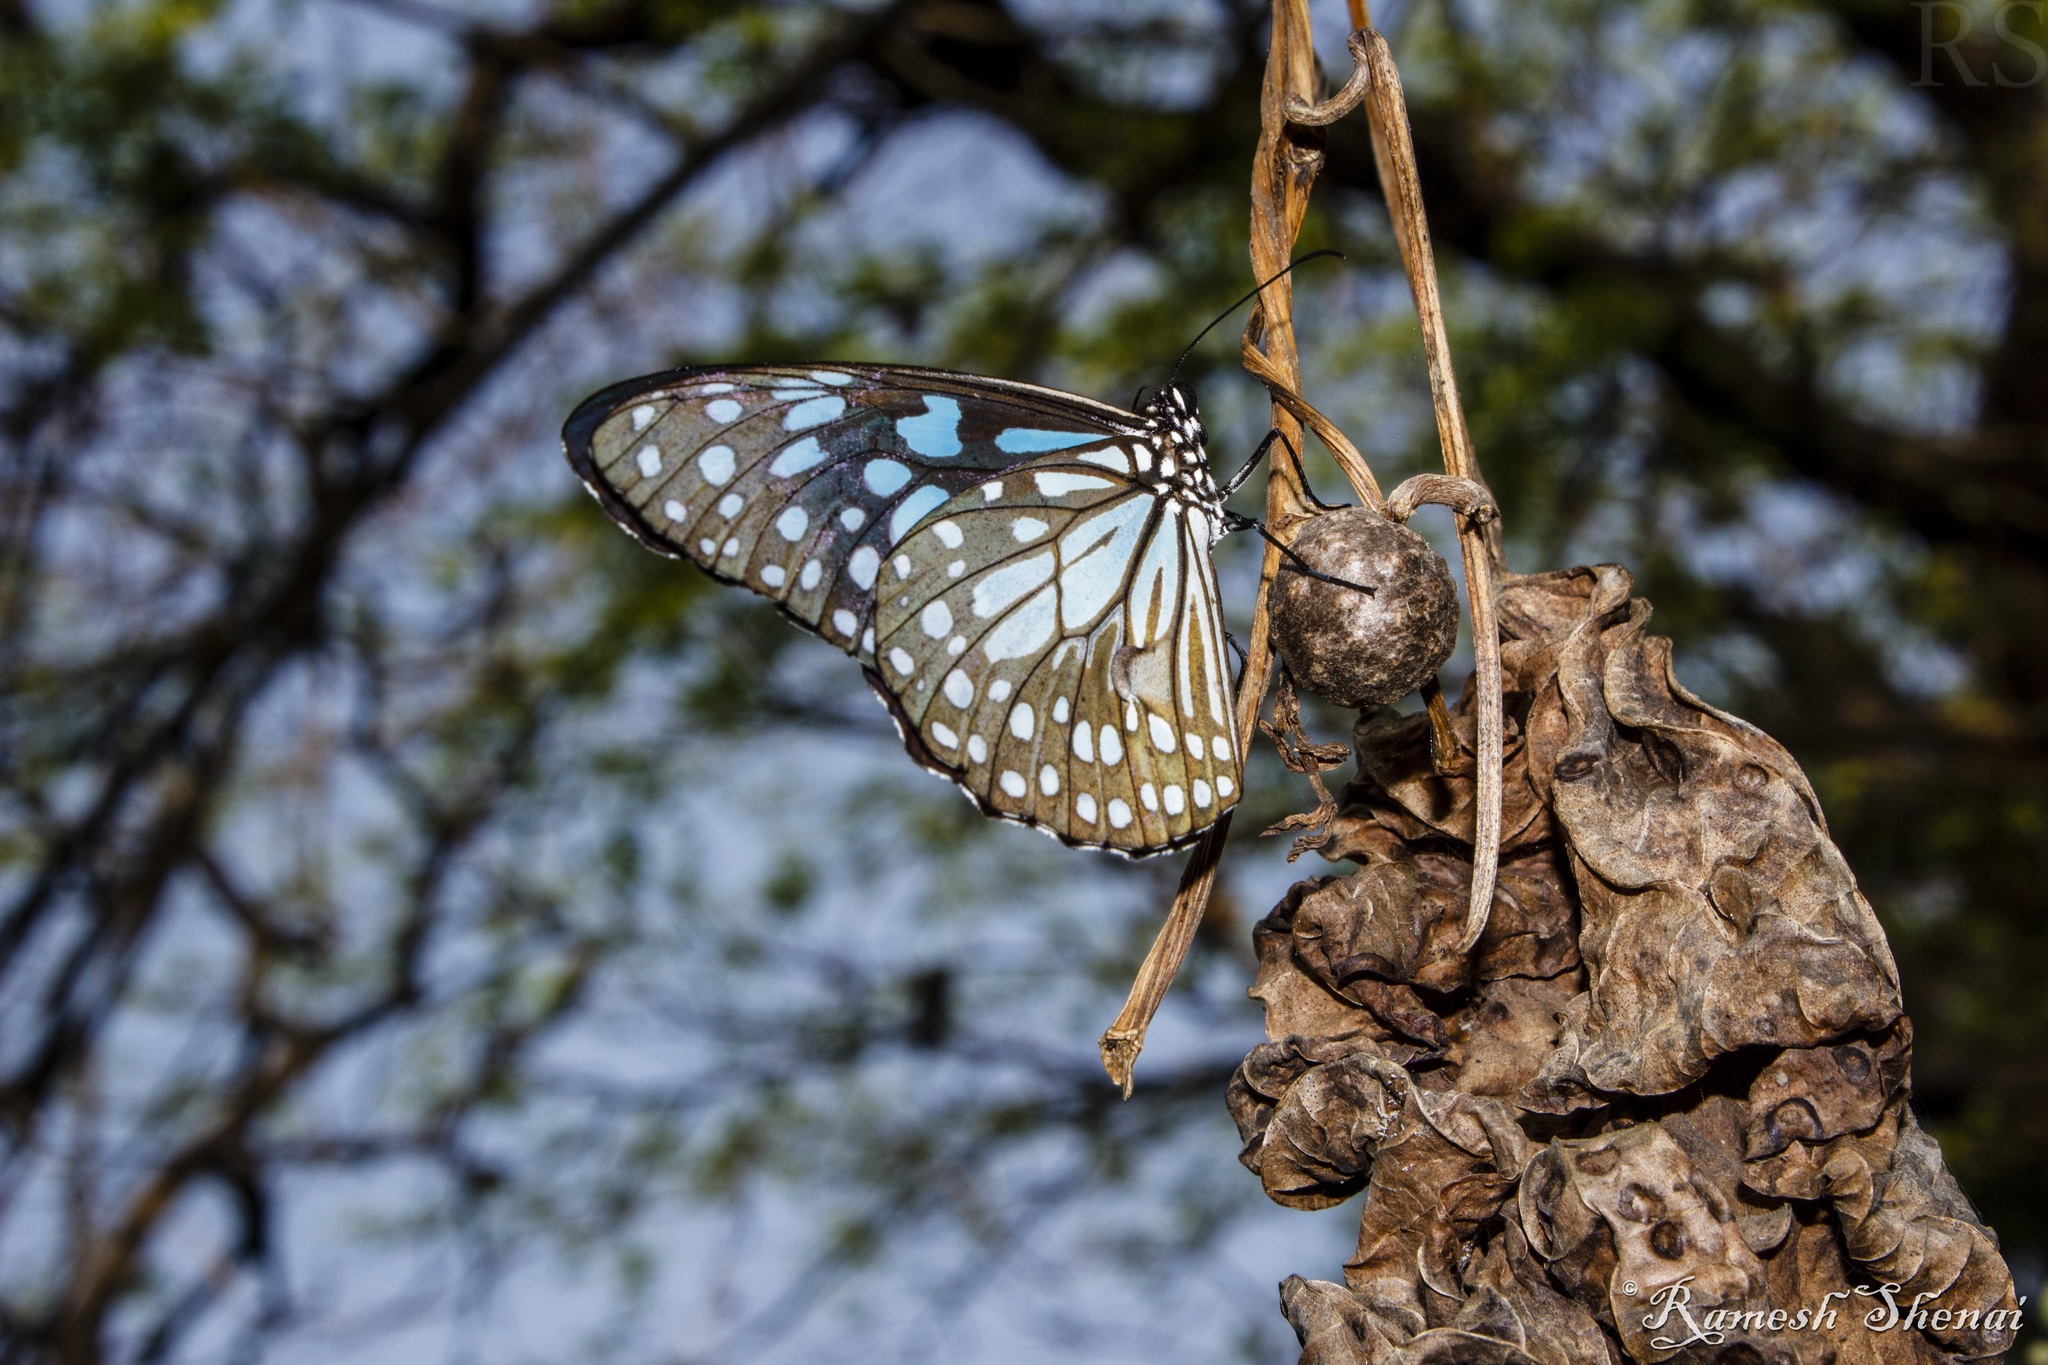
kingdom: Animalia
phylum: Arthropoda
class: Insecta
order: Lepidoptera
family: Nymphalidae
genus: Tirumala
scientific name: Tirumala limniace
